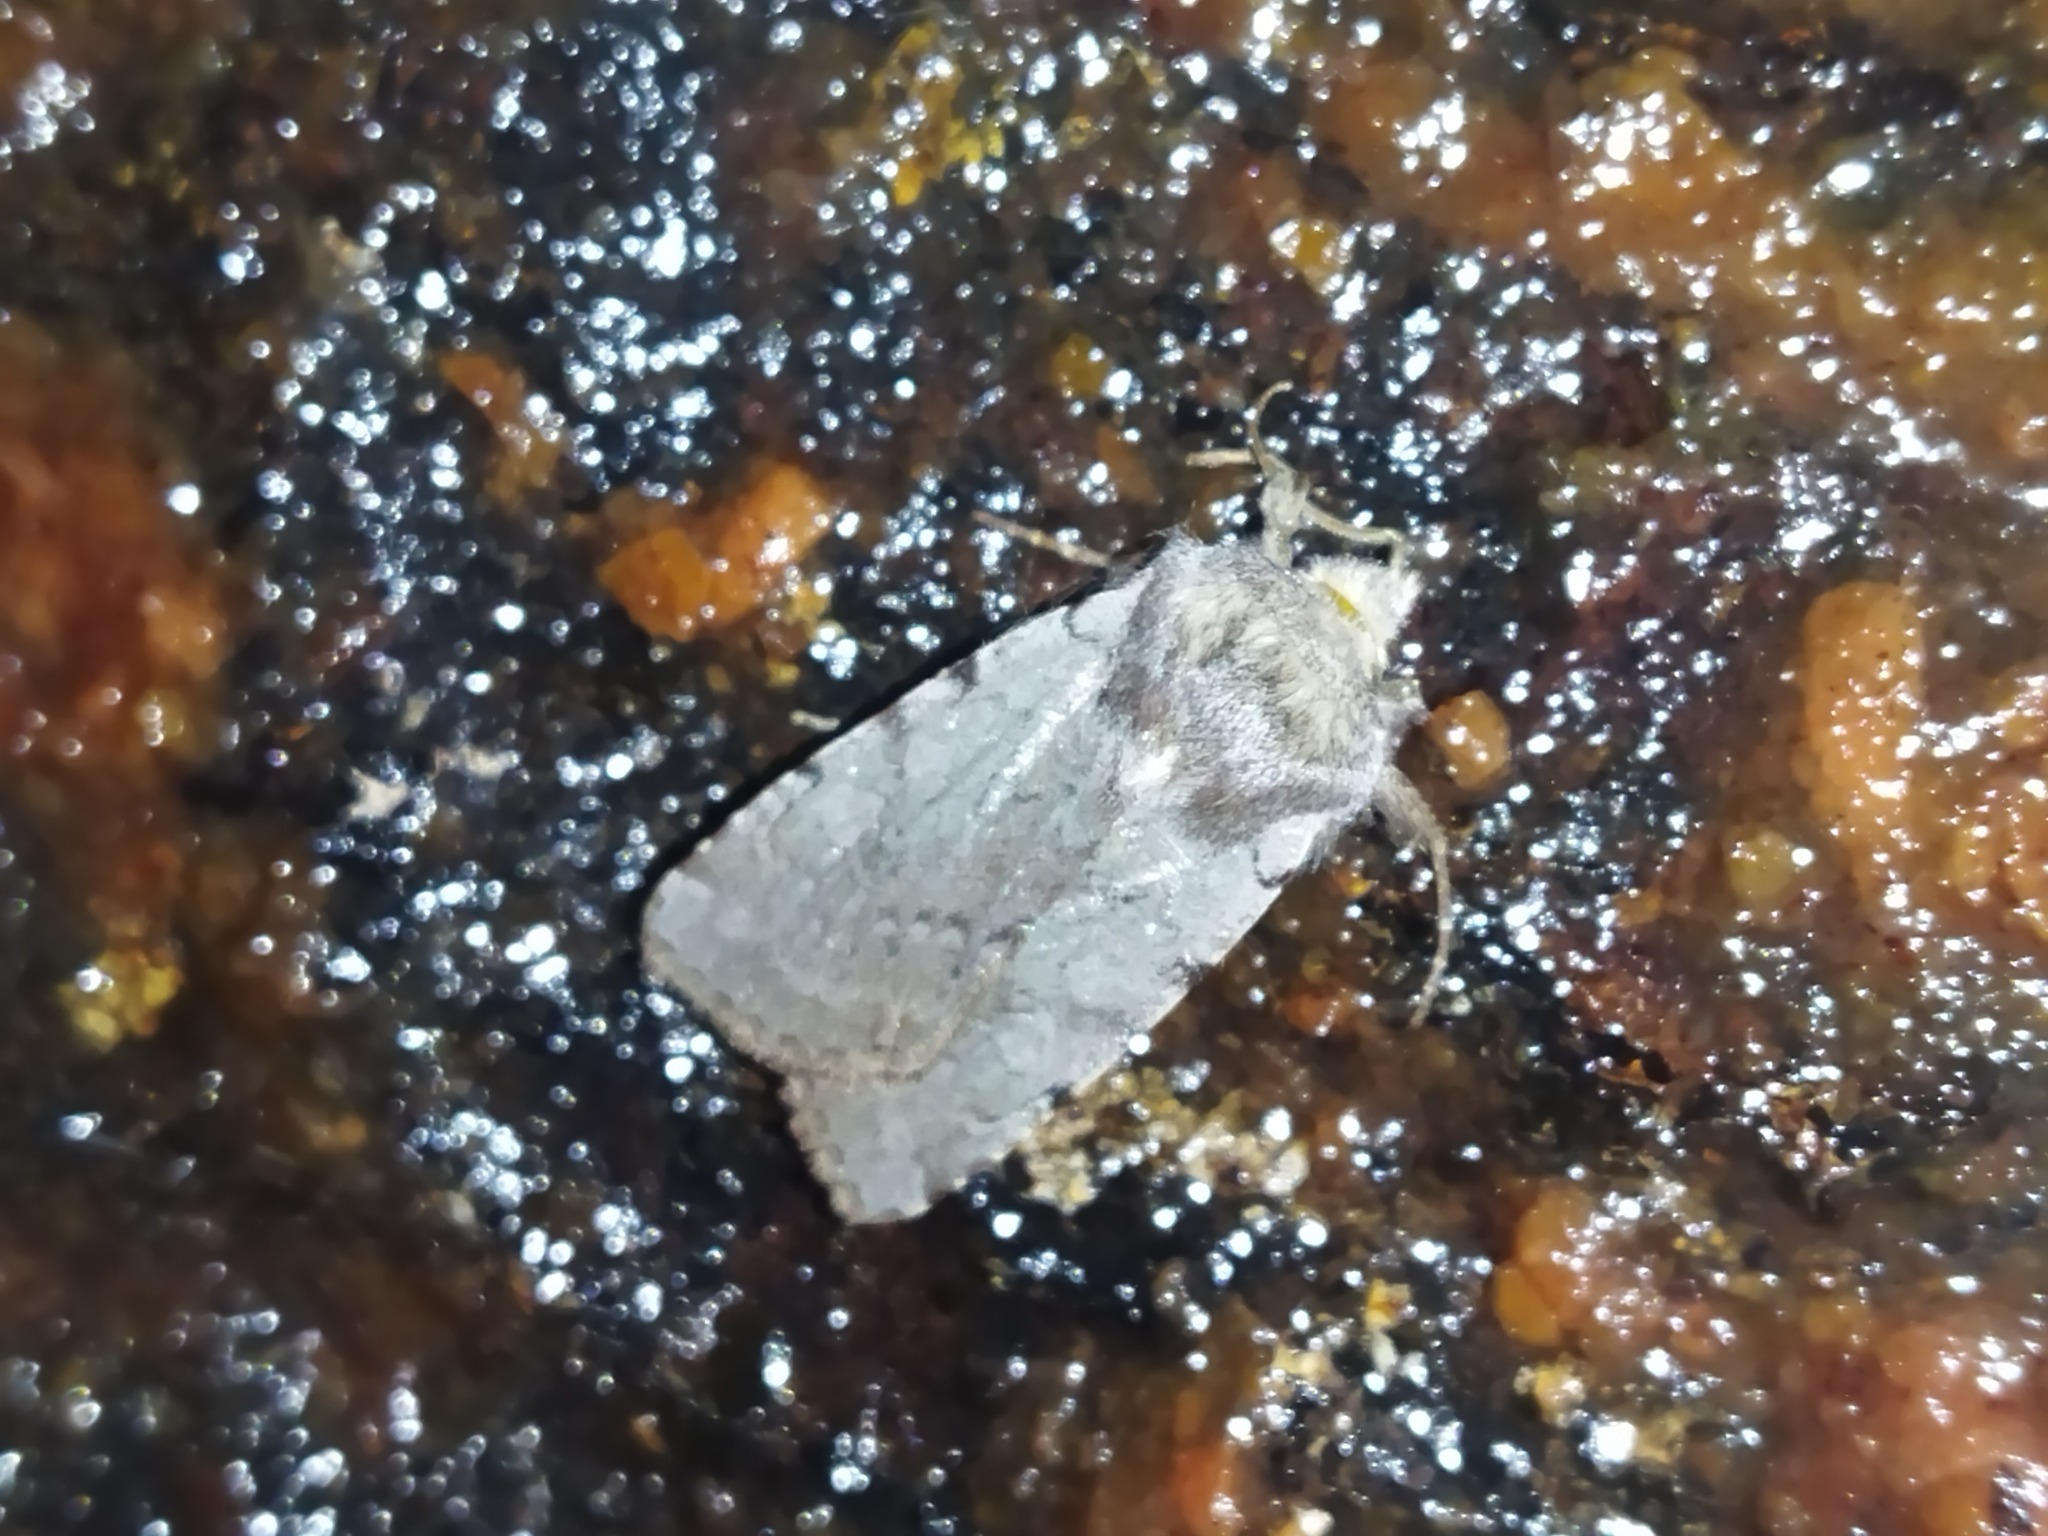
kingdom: Animalia
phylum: Arthropoda
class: Insecta
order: Lepidoptera
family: Noctuidae
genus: Cerastis
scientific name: Cerastis rubricosa
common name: Red chestnut
